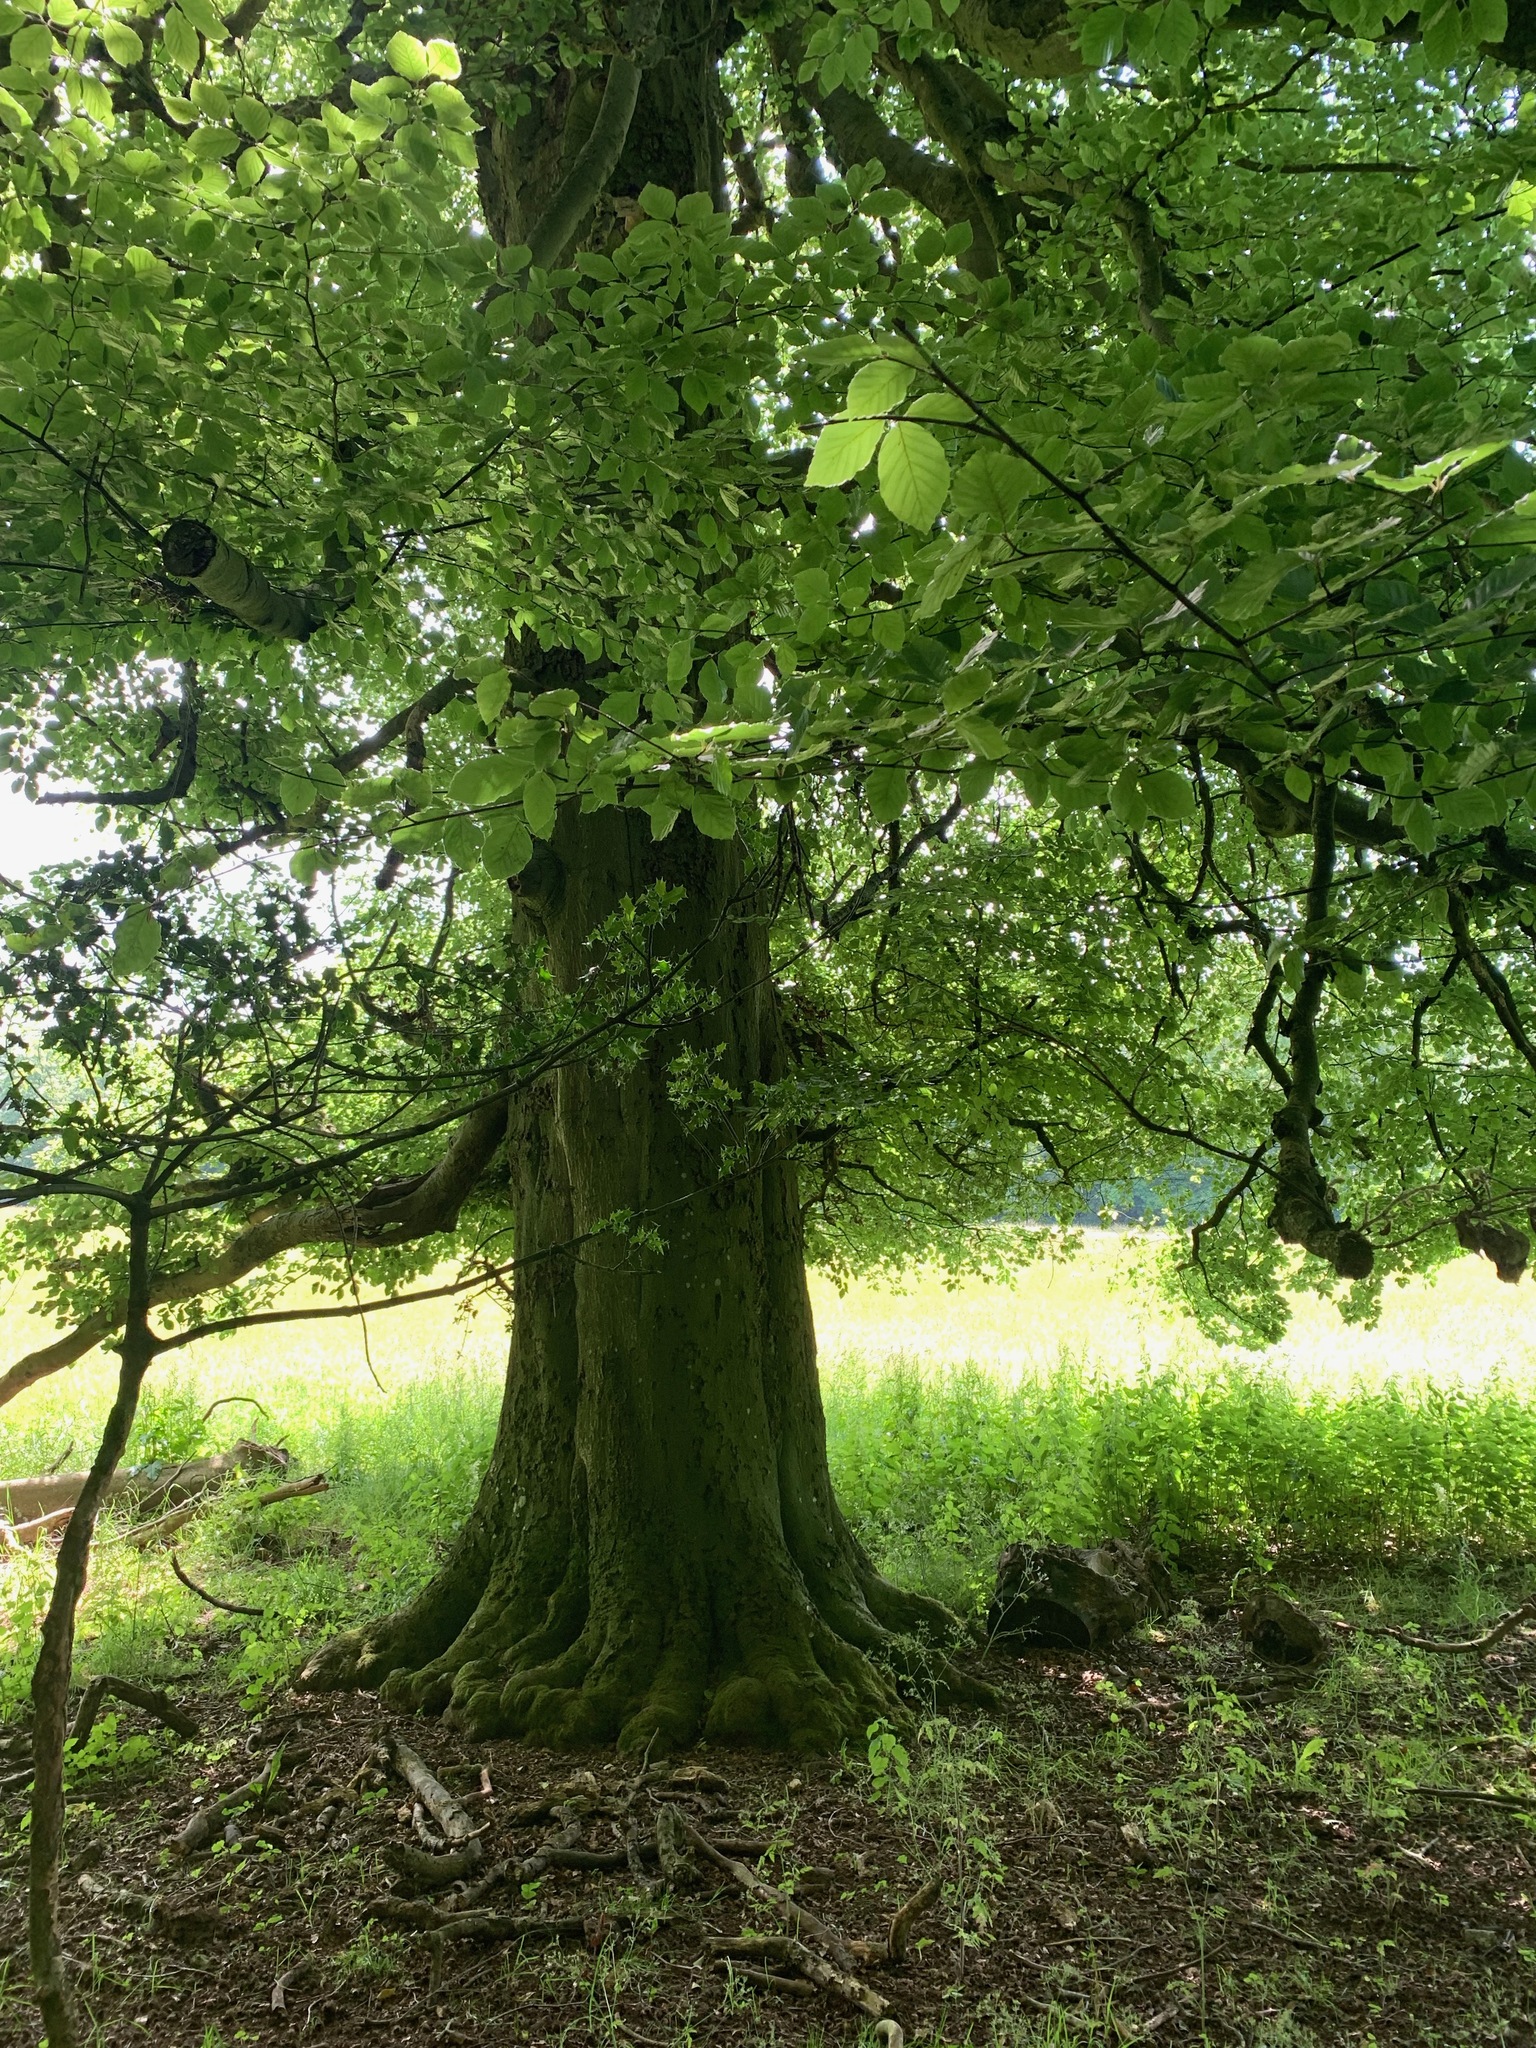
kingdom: Plantae
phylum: Tracheophyta
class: Magnoliopsida
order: Fagales
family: Fagaceae
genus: Fagus
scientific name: Fagus sylvatica
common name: Beech
